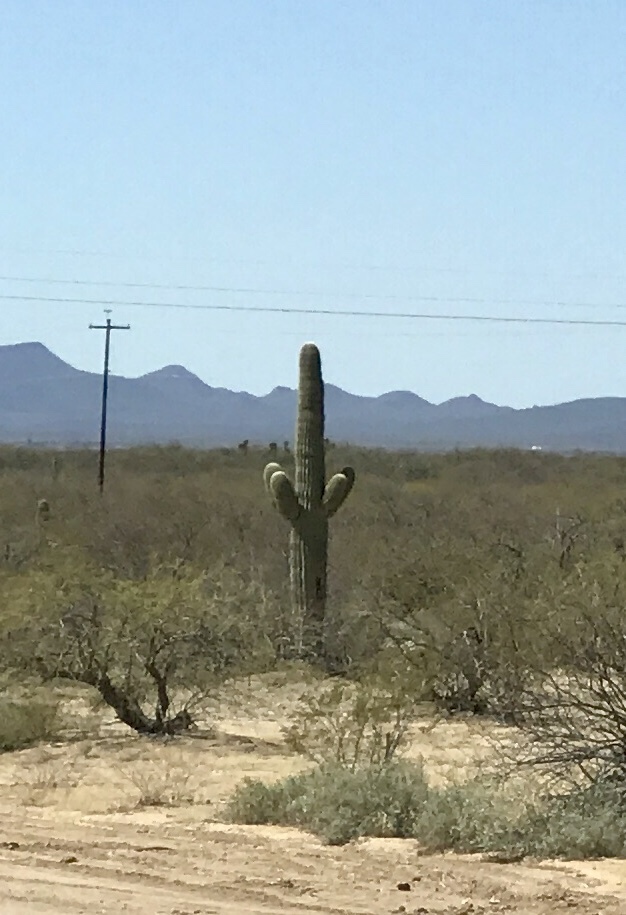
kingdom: Plantae
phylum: Tracheophyta
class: Magnoliopsida
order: Caryophyllales
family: Cactaceae
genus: Carnegiea
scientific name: Carnegiea gigantea
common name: Saguaro
